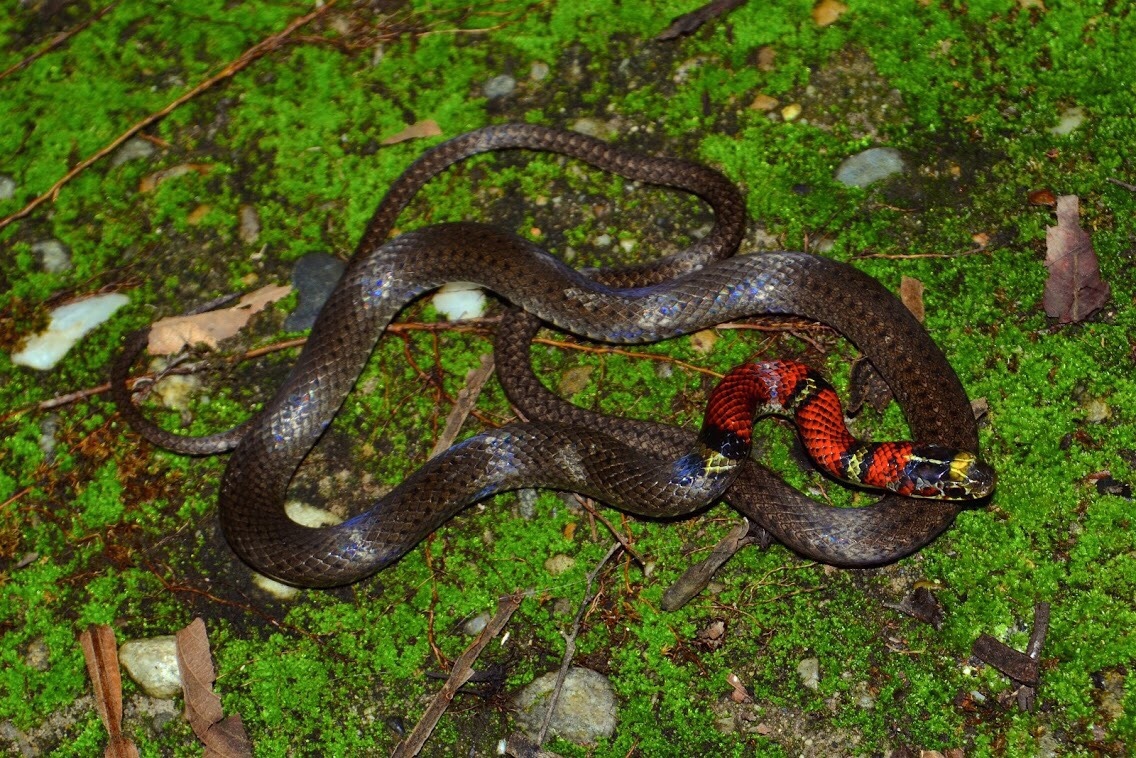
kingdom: Animalia
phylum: Chordata
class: Squamata
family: Colubridae
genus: Scaphiodontophis
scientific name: Scaphiodontophis annulatus
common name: Guatemala neckband snake
